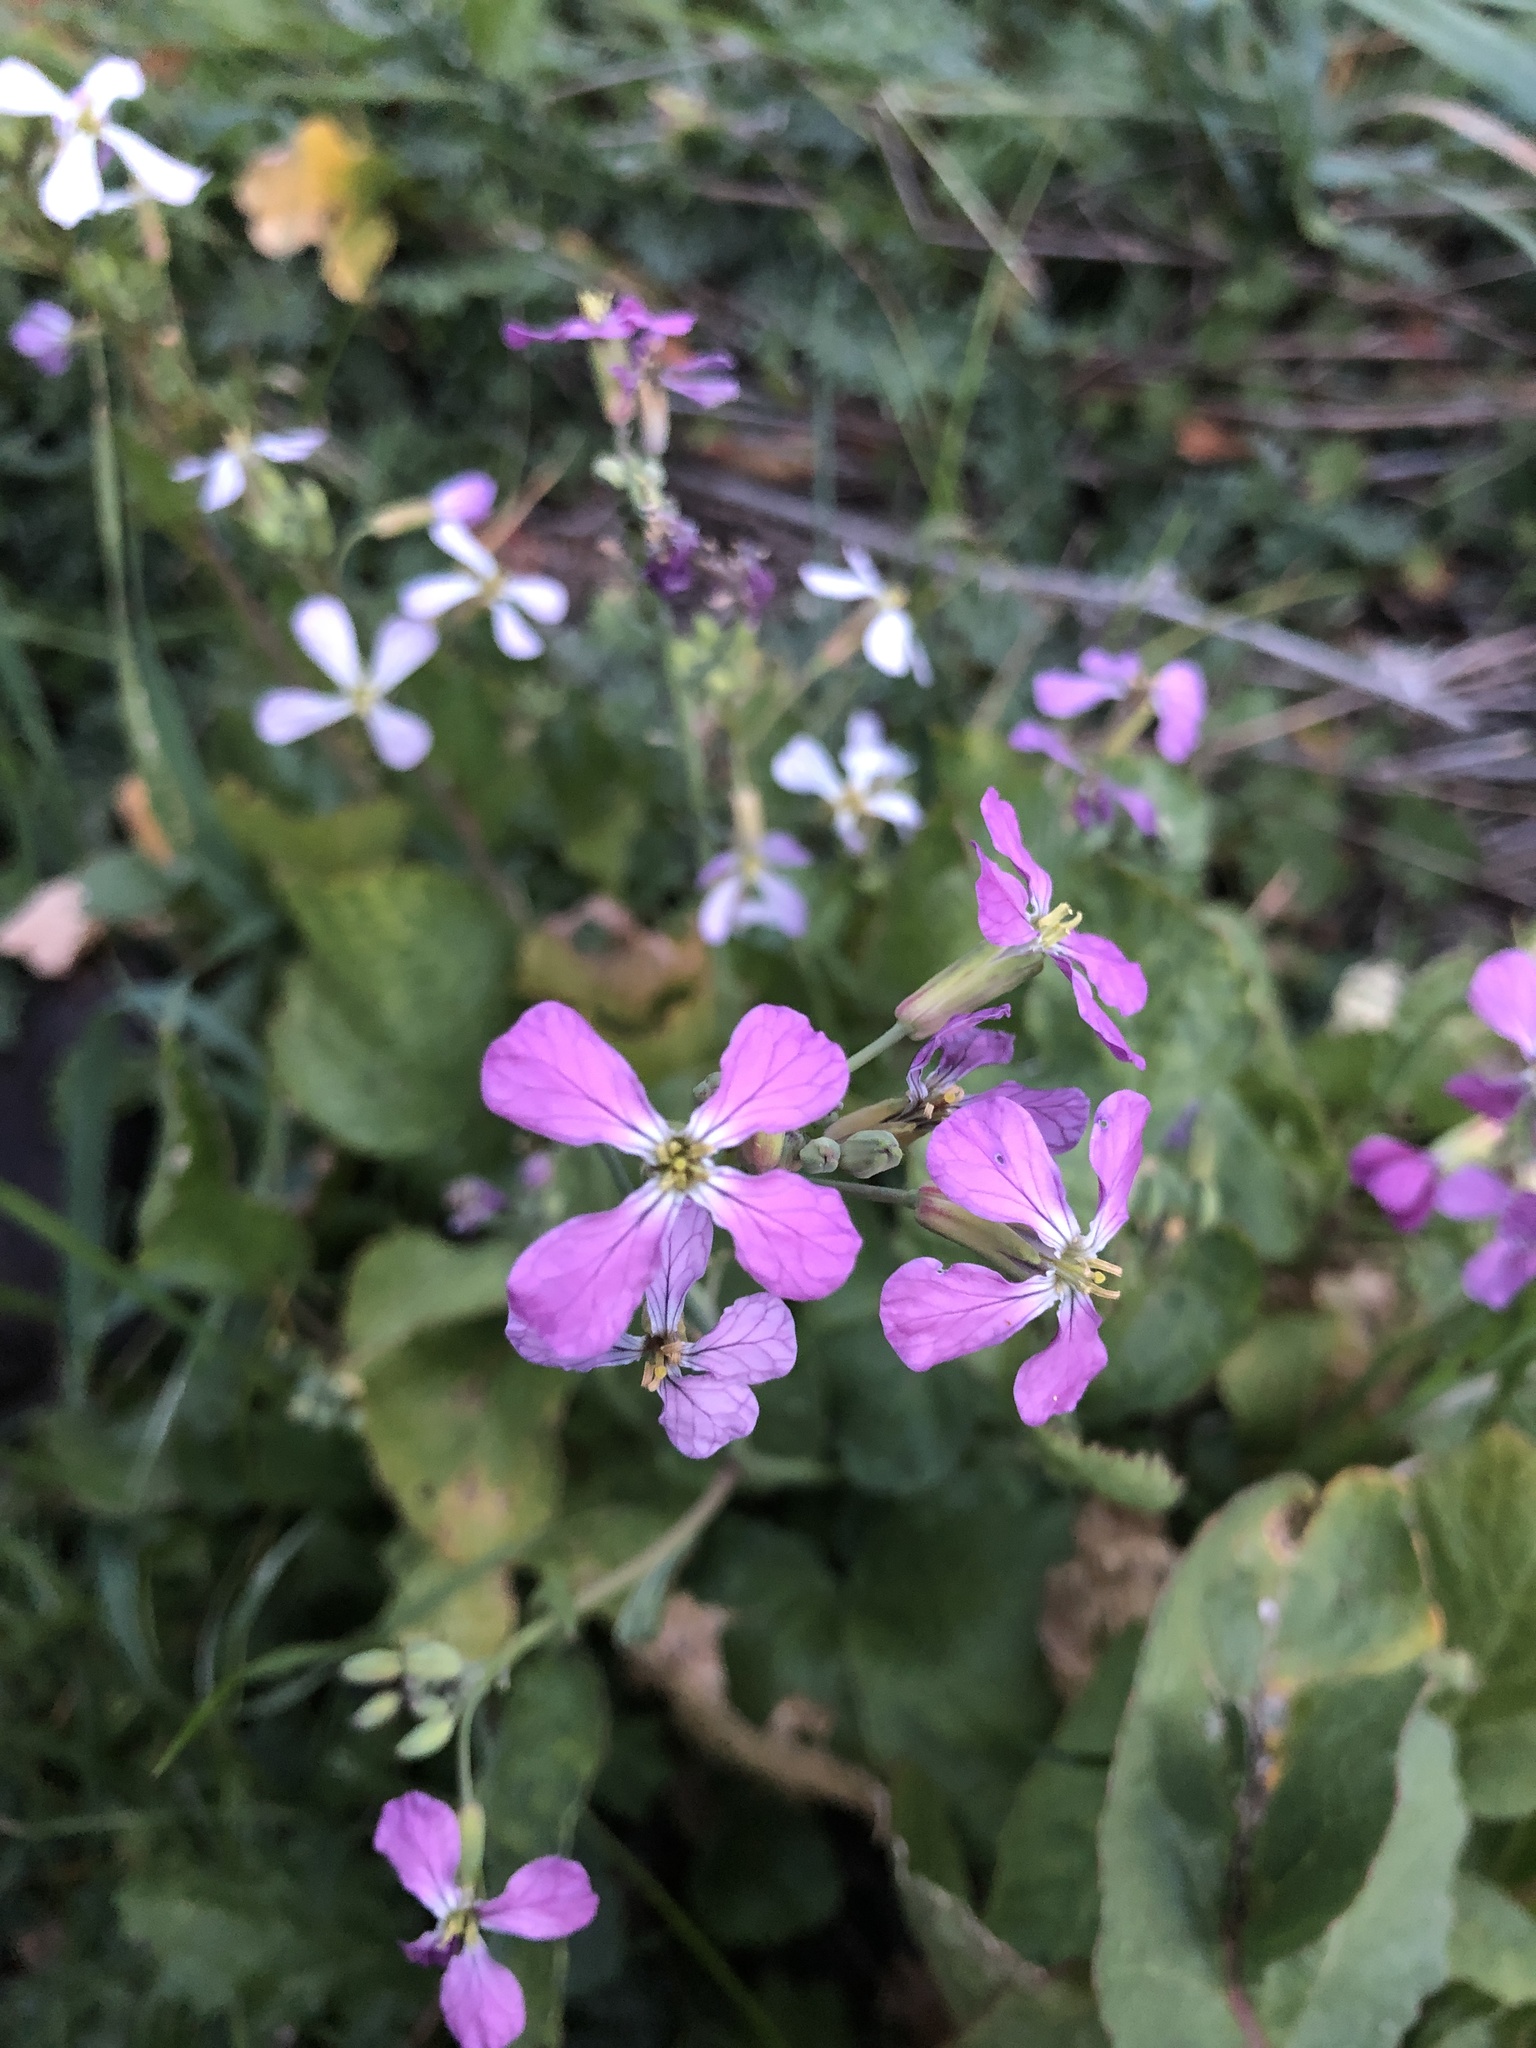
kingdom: Plantae
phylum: Tracheophyta
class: Magnoliopsida
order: Brassicales
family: Brassicaceae
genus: Raphanus
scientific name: Raphanus sativus
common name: Cultivated radish
